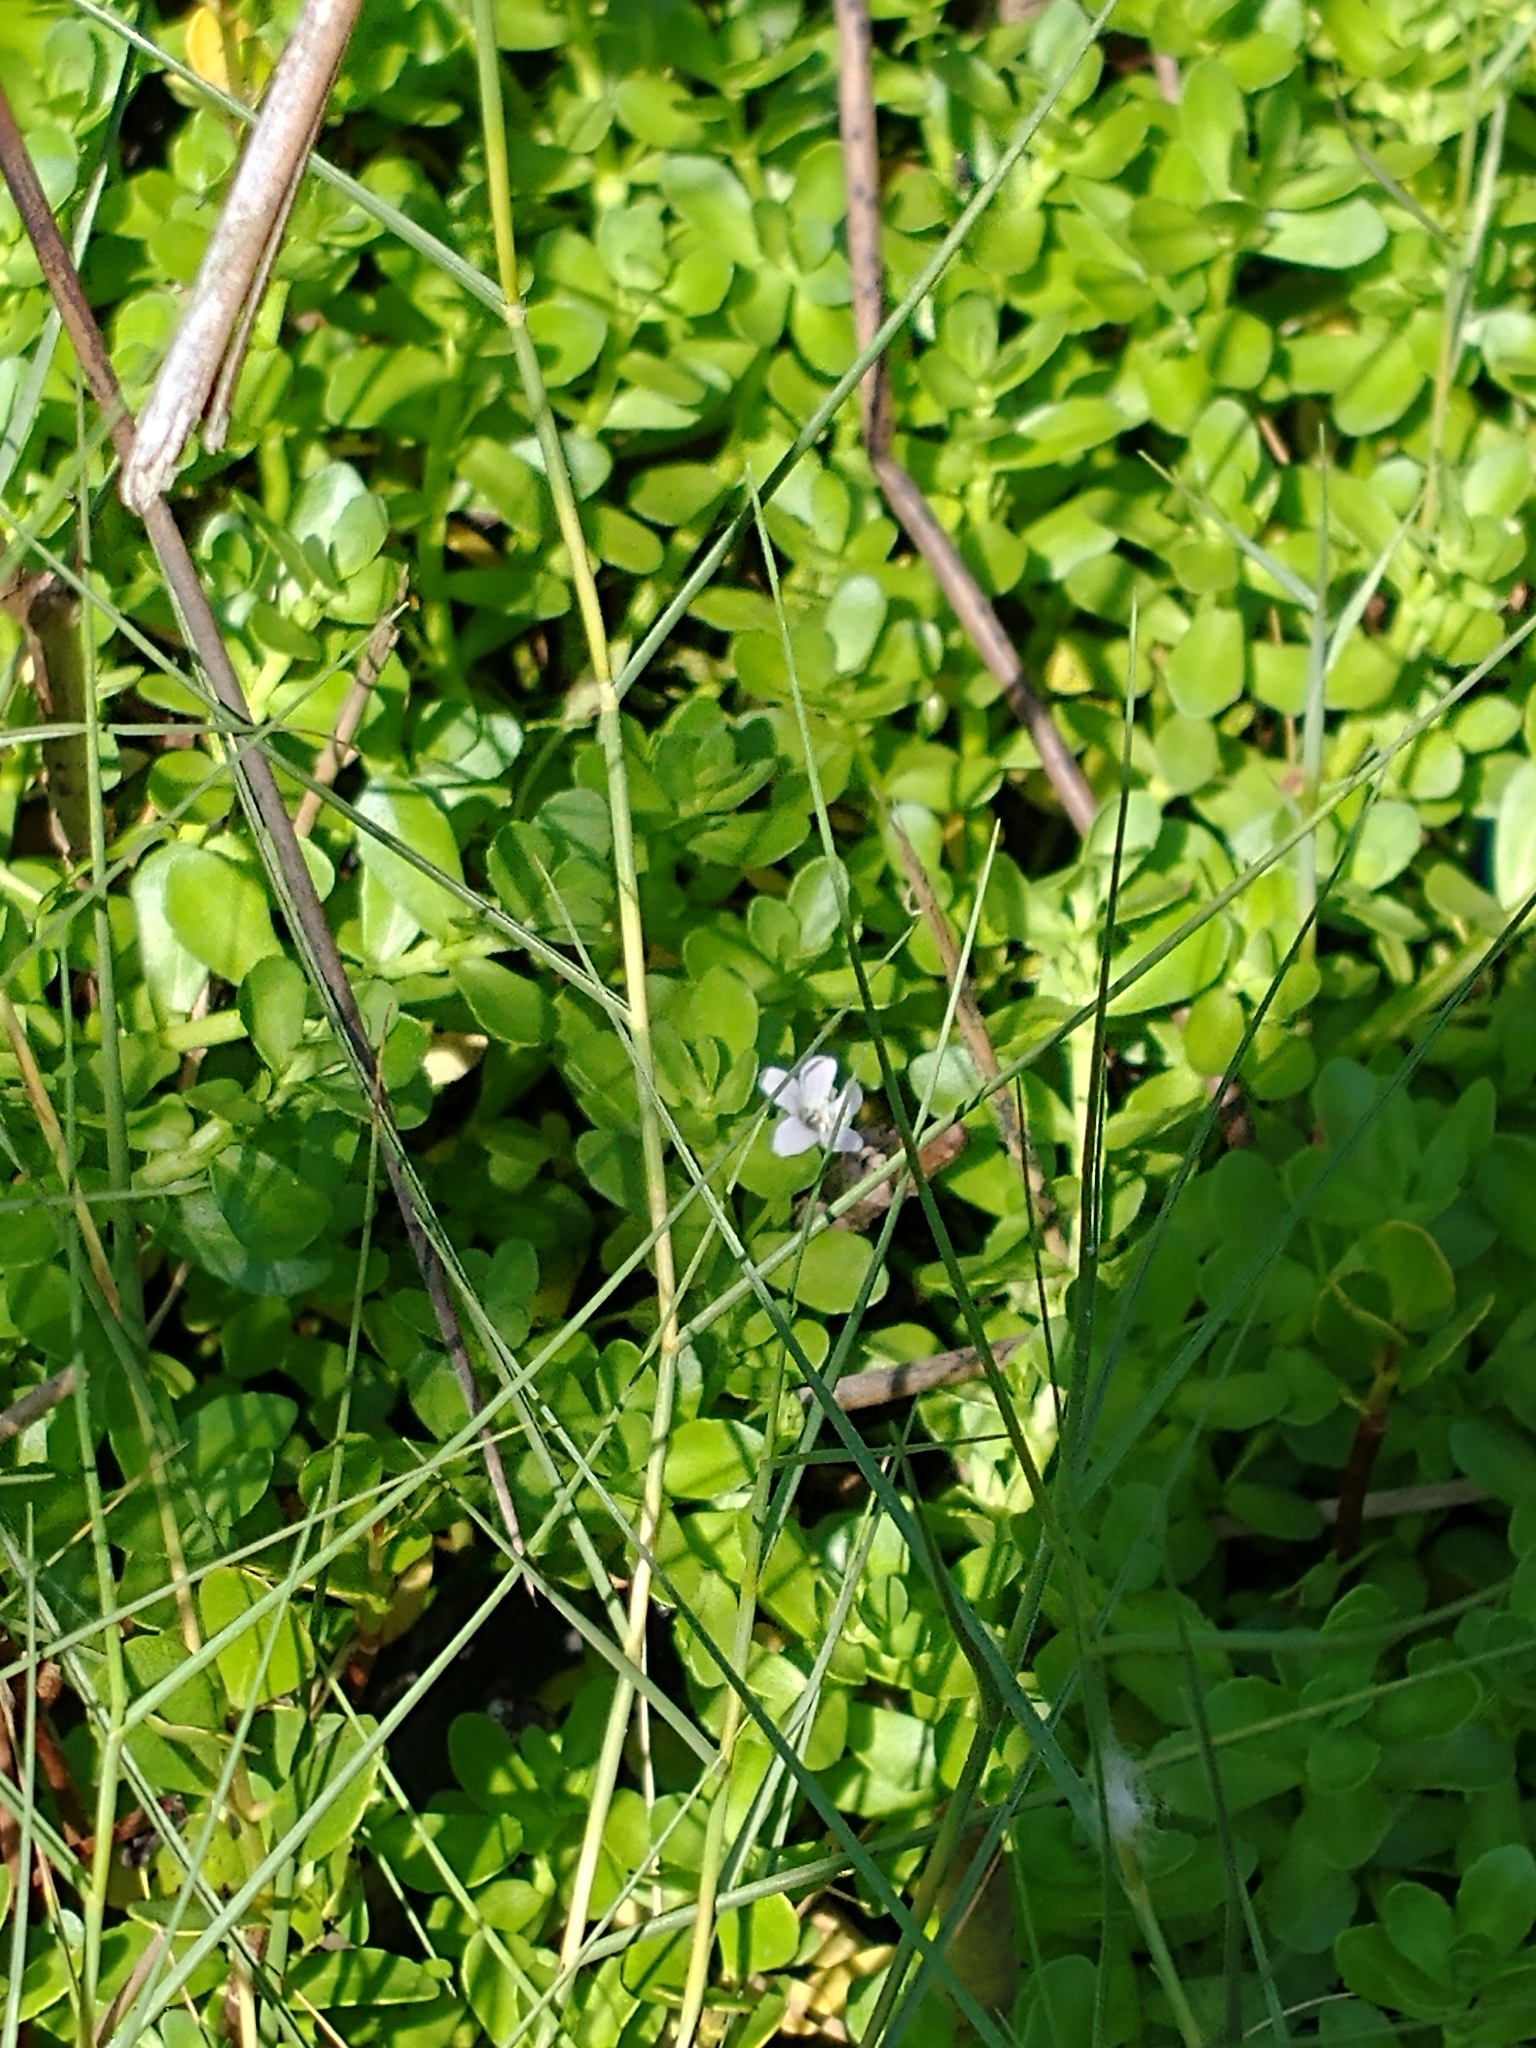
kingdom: Plantae
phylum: Tracheophyta
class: Magnoliopsida
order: Lamiales
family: Plantaginaceae
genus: Bacopa
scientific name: Bacopa monnieri
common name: Indian-pennywort
